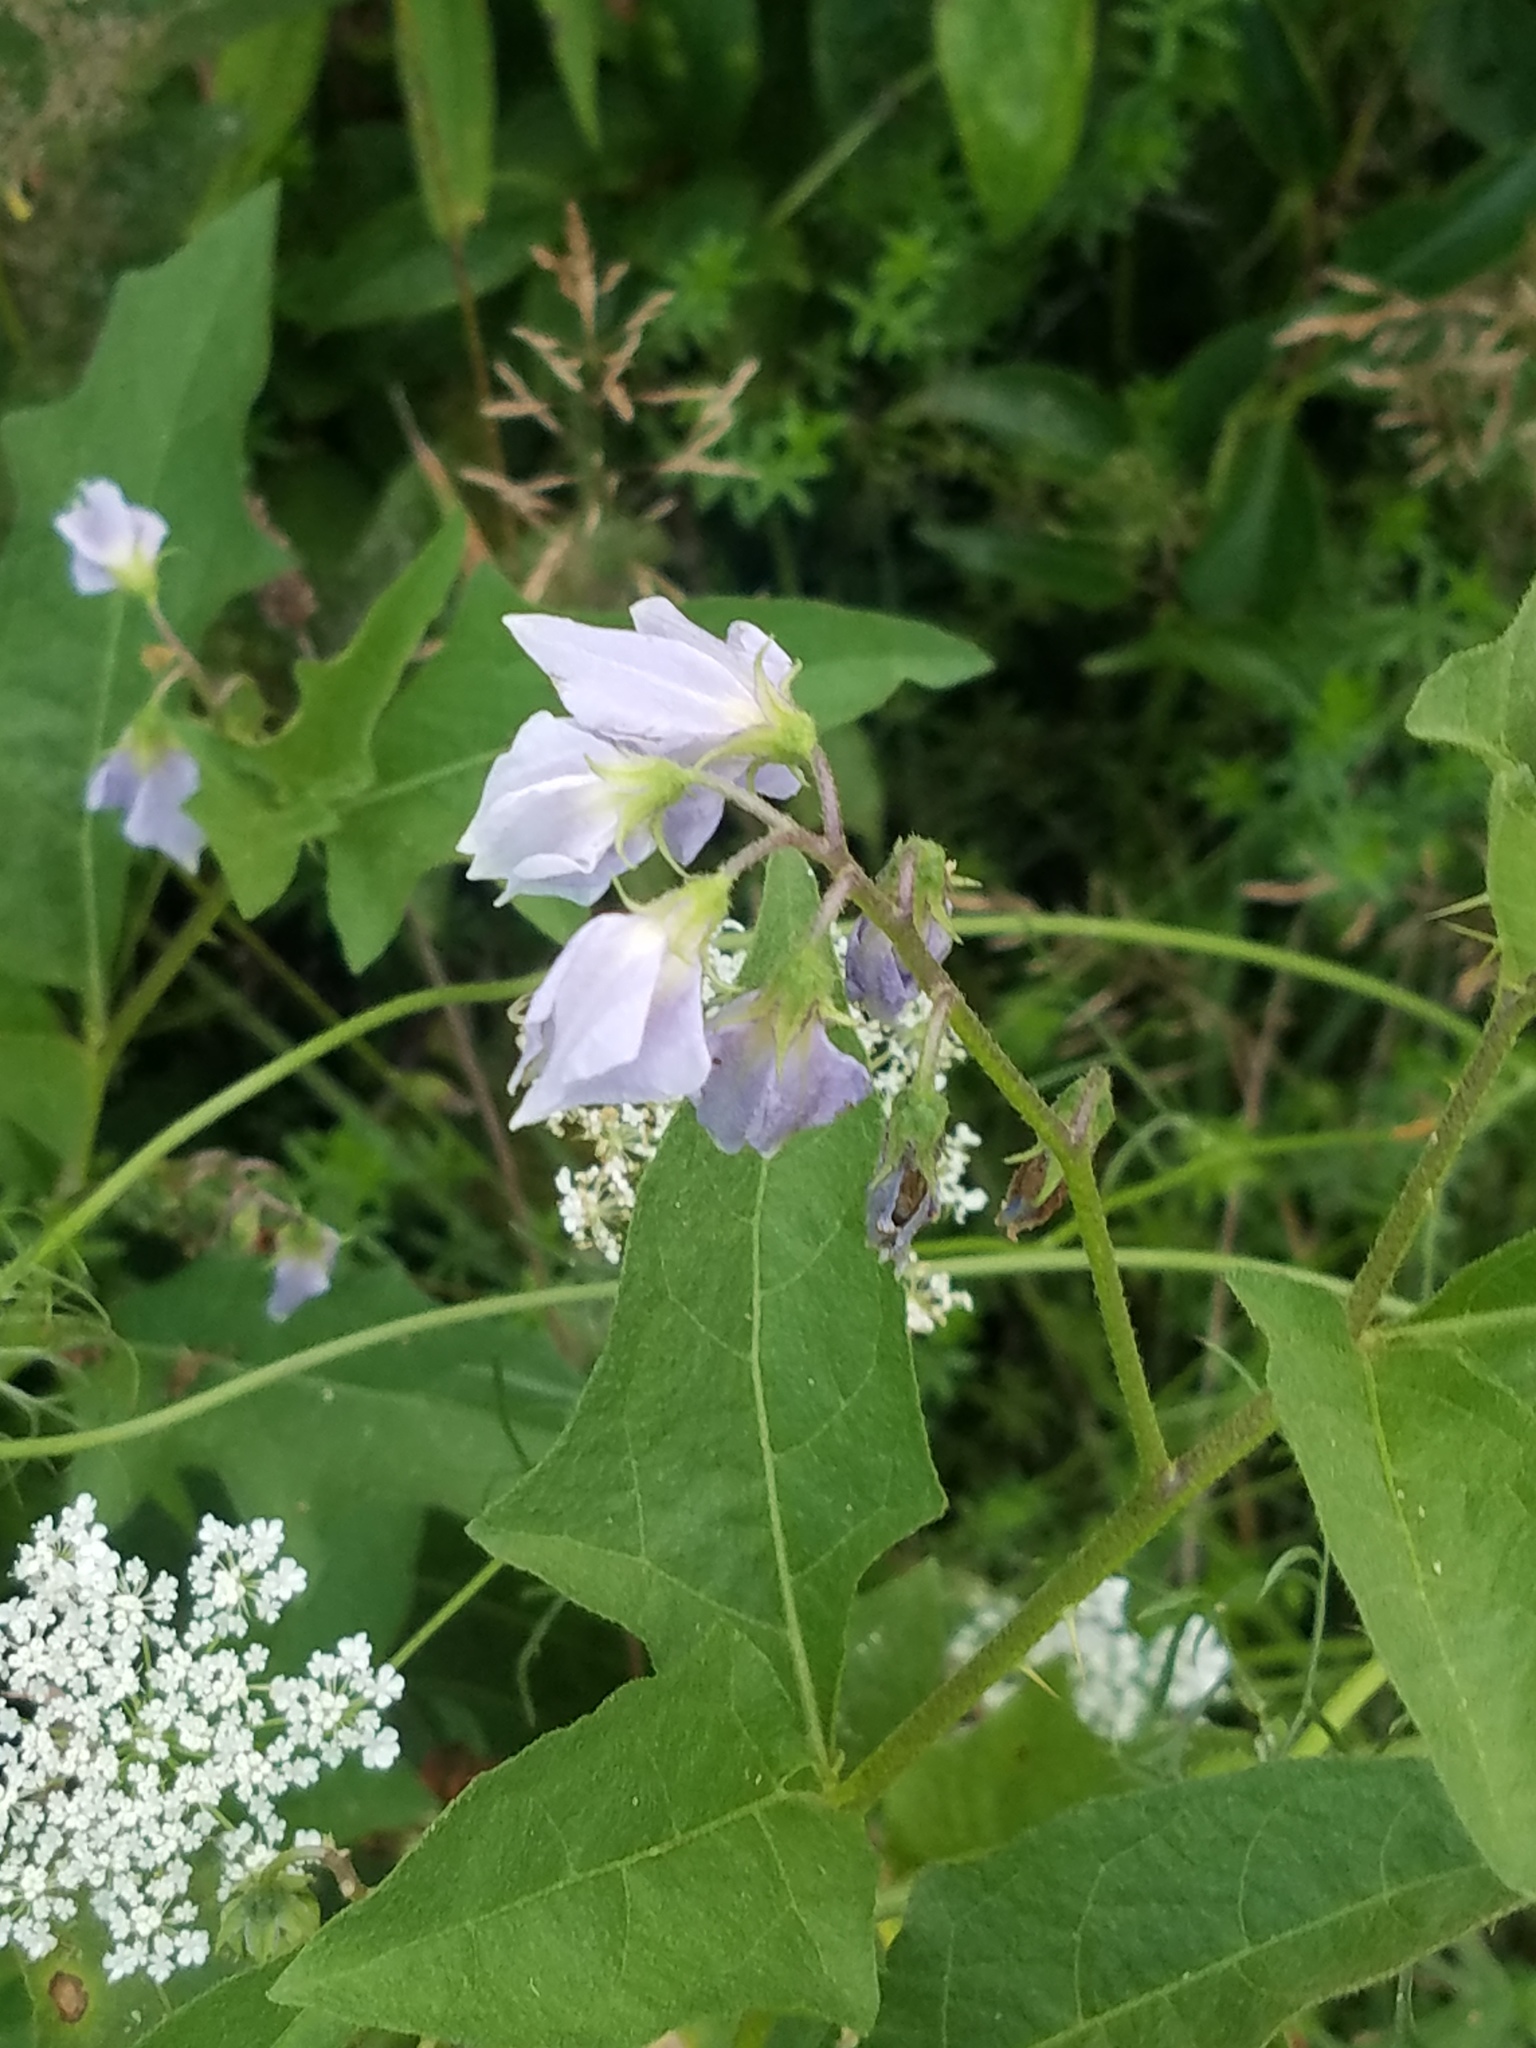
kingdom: Plantae
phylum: Tracheophyta
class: Magnoliopsida
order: Solanales
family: Solanaceae
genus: Solanum
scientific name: Solanum carolinense
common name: Horse-nettle
